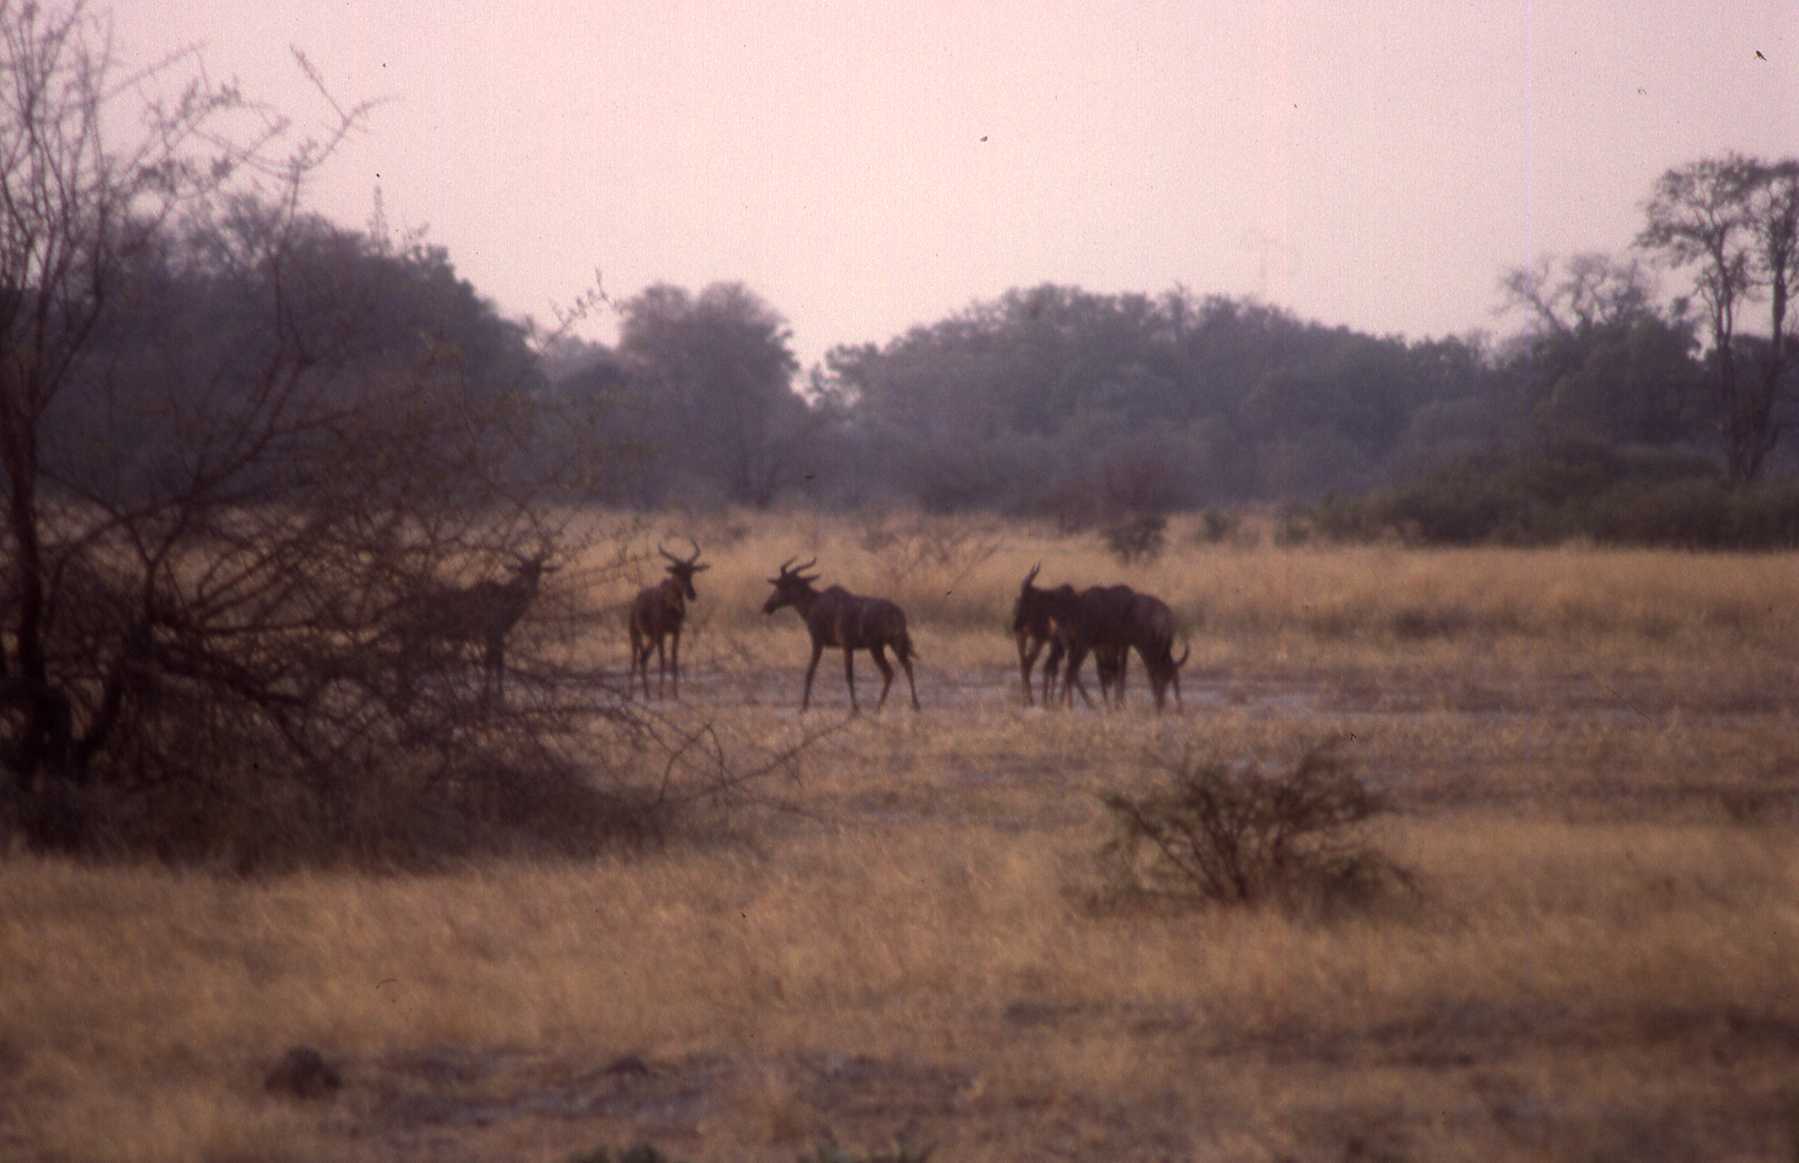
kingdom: Animalia
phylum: Chordata
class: Mammalia
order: Artiodactyla
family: Bovidae
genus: Damaliscus
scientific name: Damaliscus lunatus
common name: Common tsessebe
